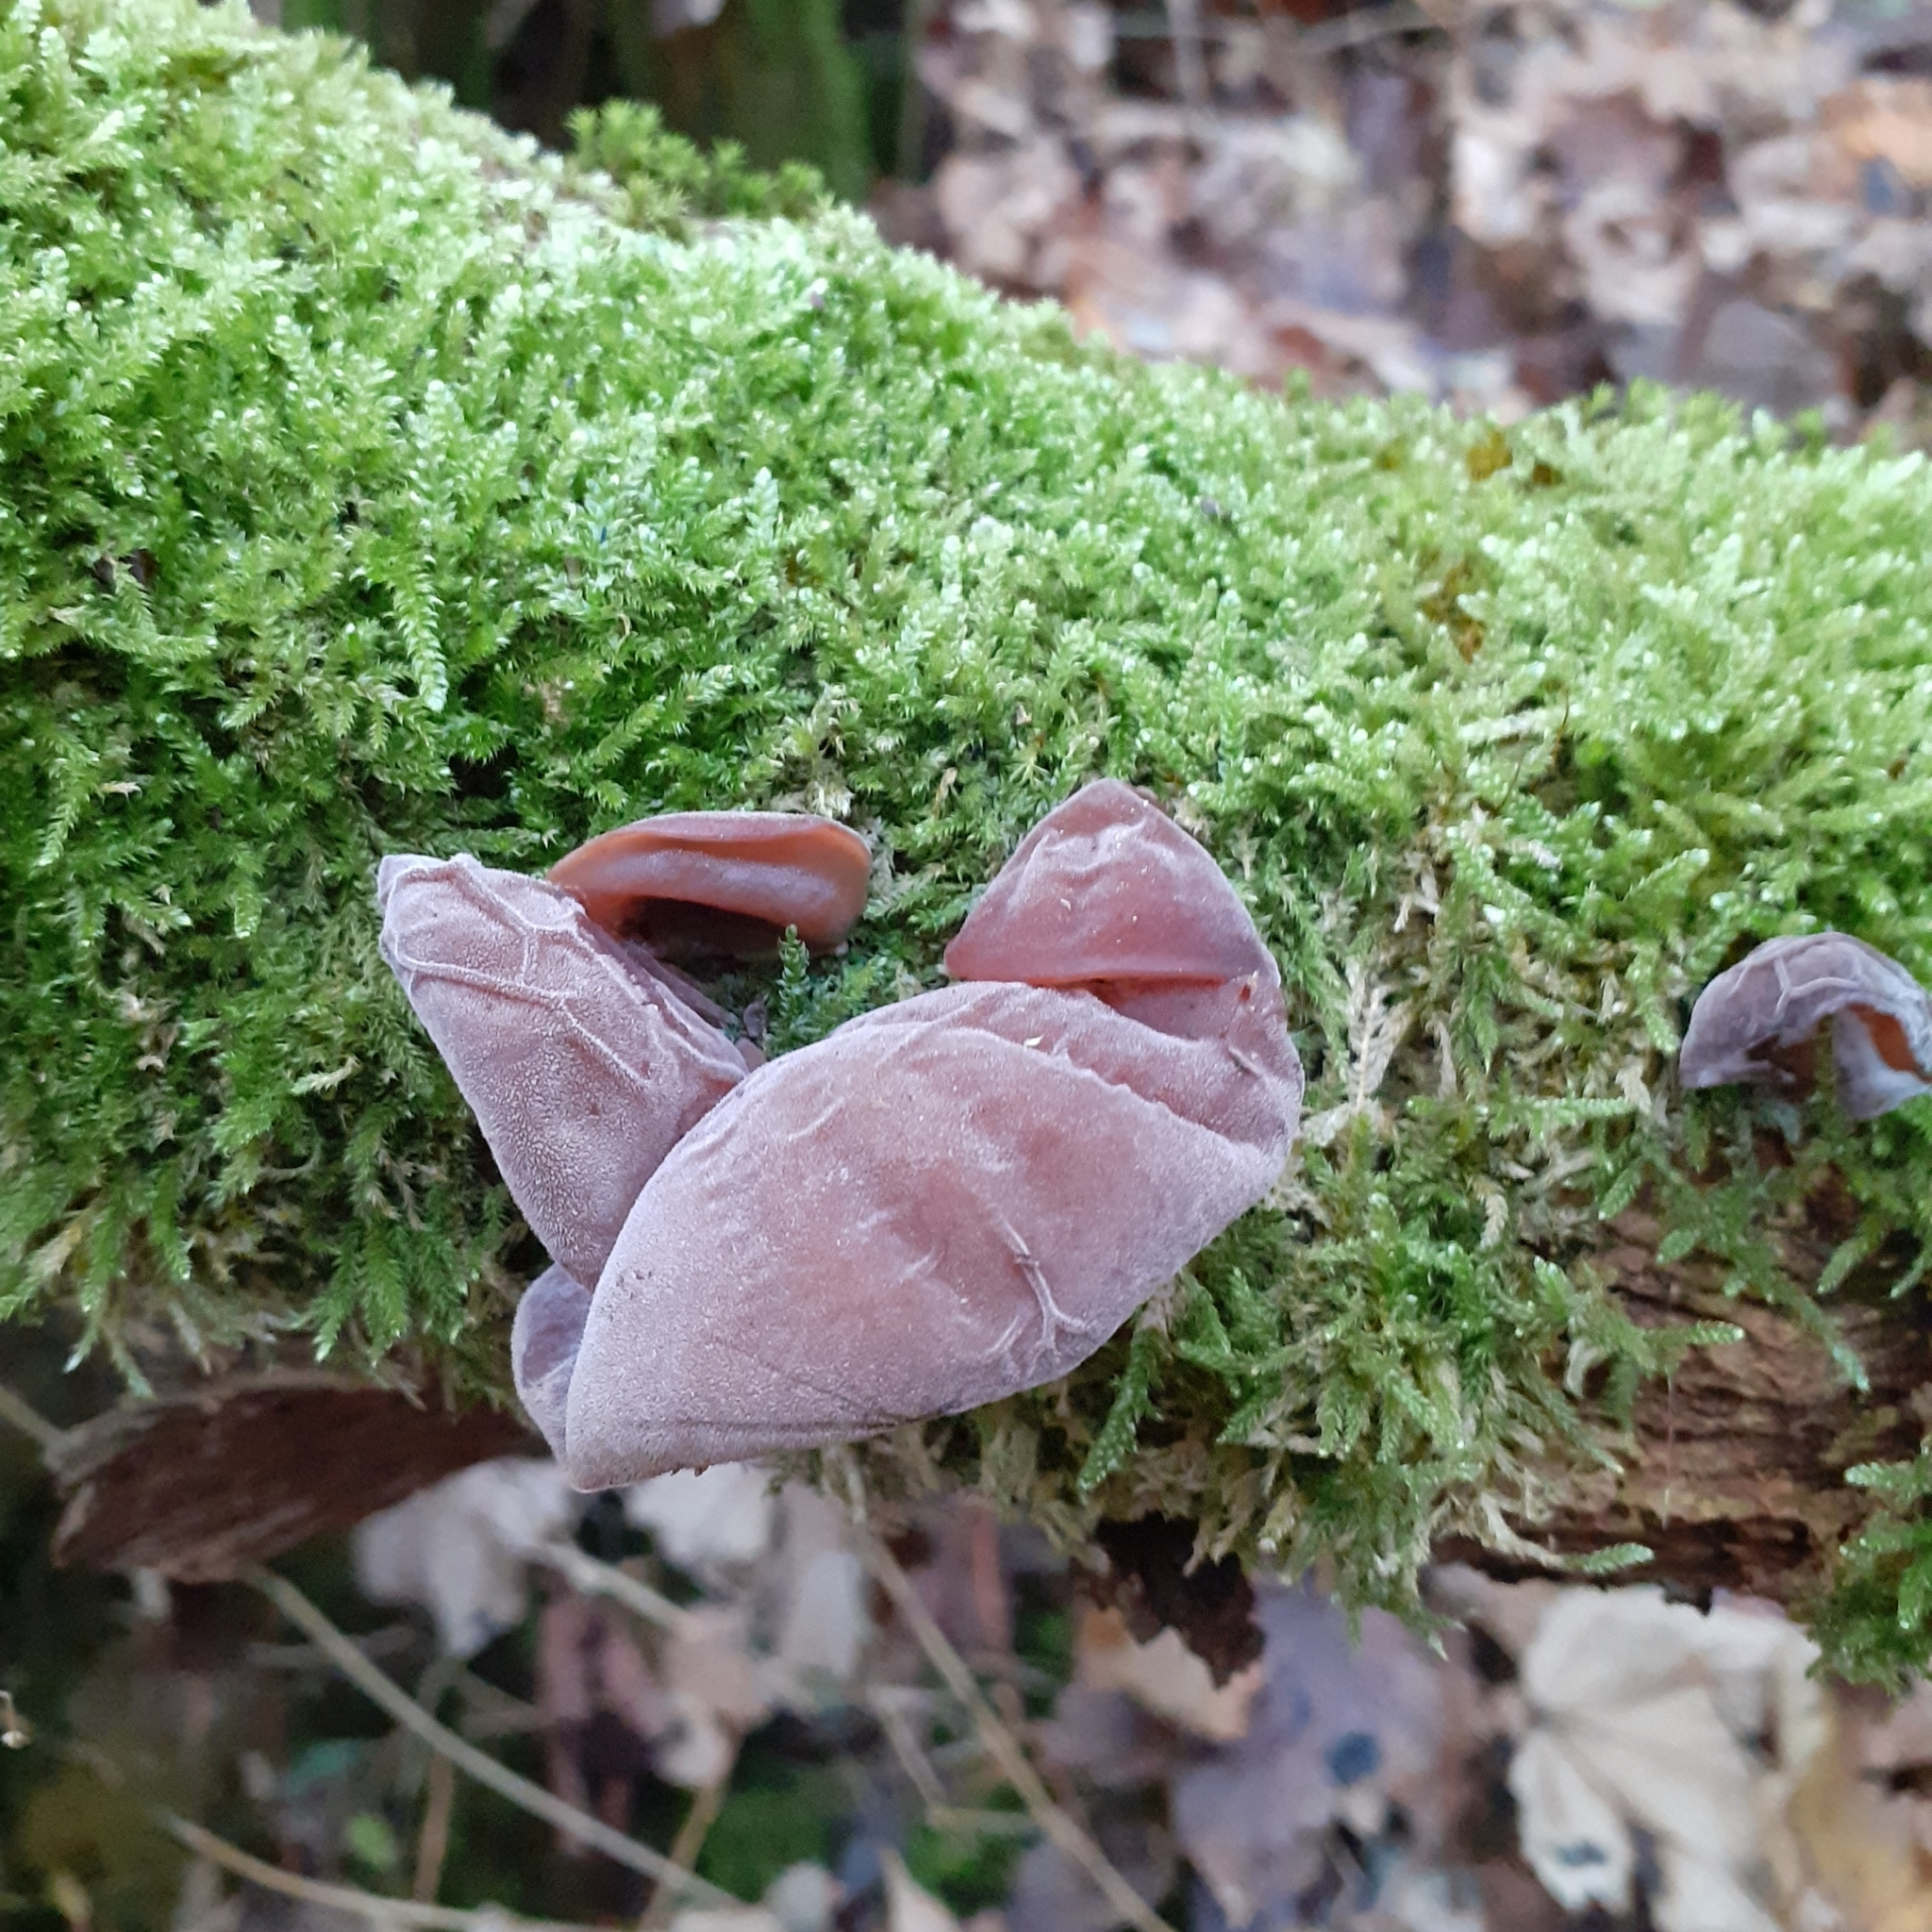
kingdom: Fungi
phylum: Basidiomycota
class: Agaricomycetes
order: Auriculariales
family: Auriculariaceae
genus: Auricularia
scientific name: Auricularia auricula-judae
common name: Jelly ear
